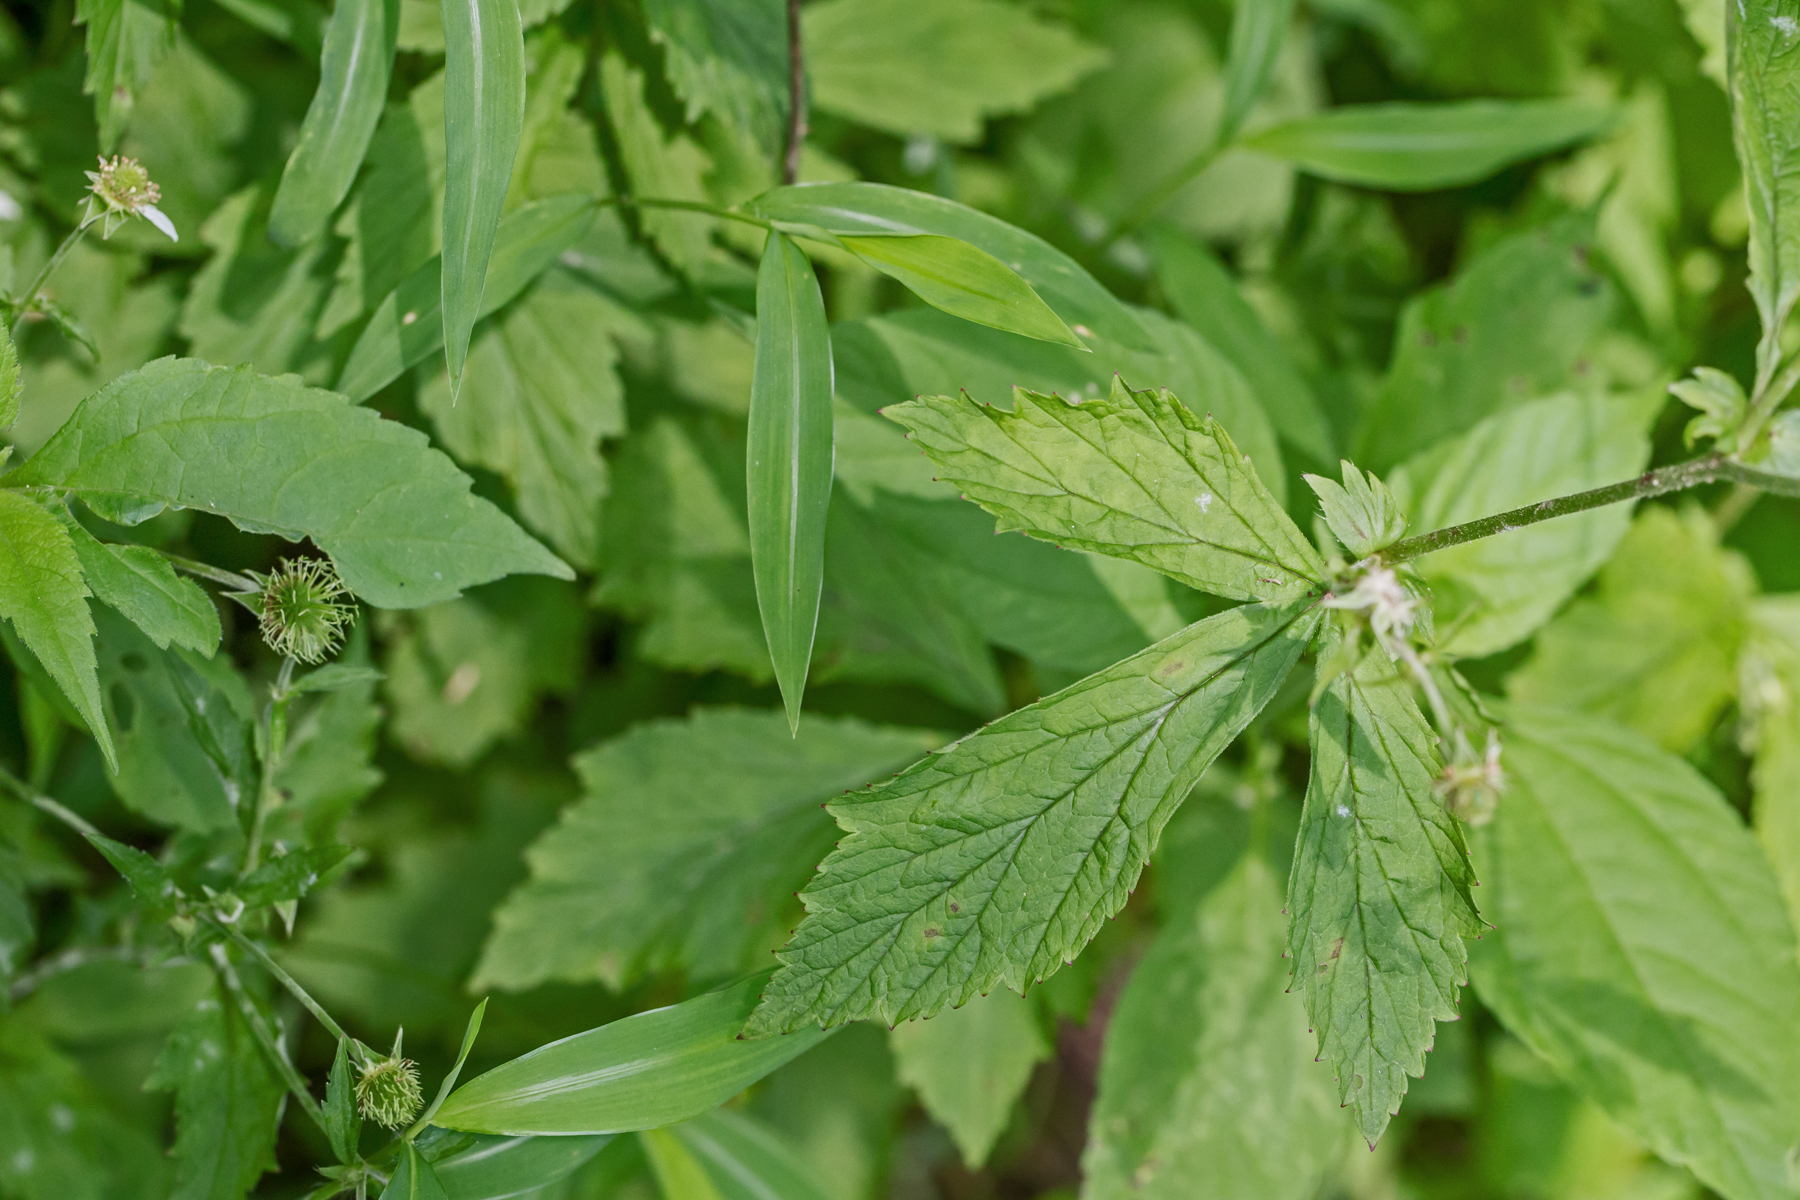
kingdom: Plantae
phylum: Tracheophyta
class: Magnoliopsida
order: Rosales
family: Rosaceae
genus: Geum
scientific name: Geum canadense
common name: White avens
